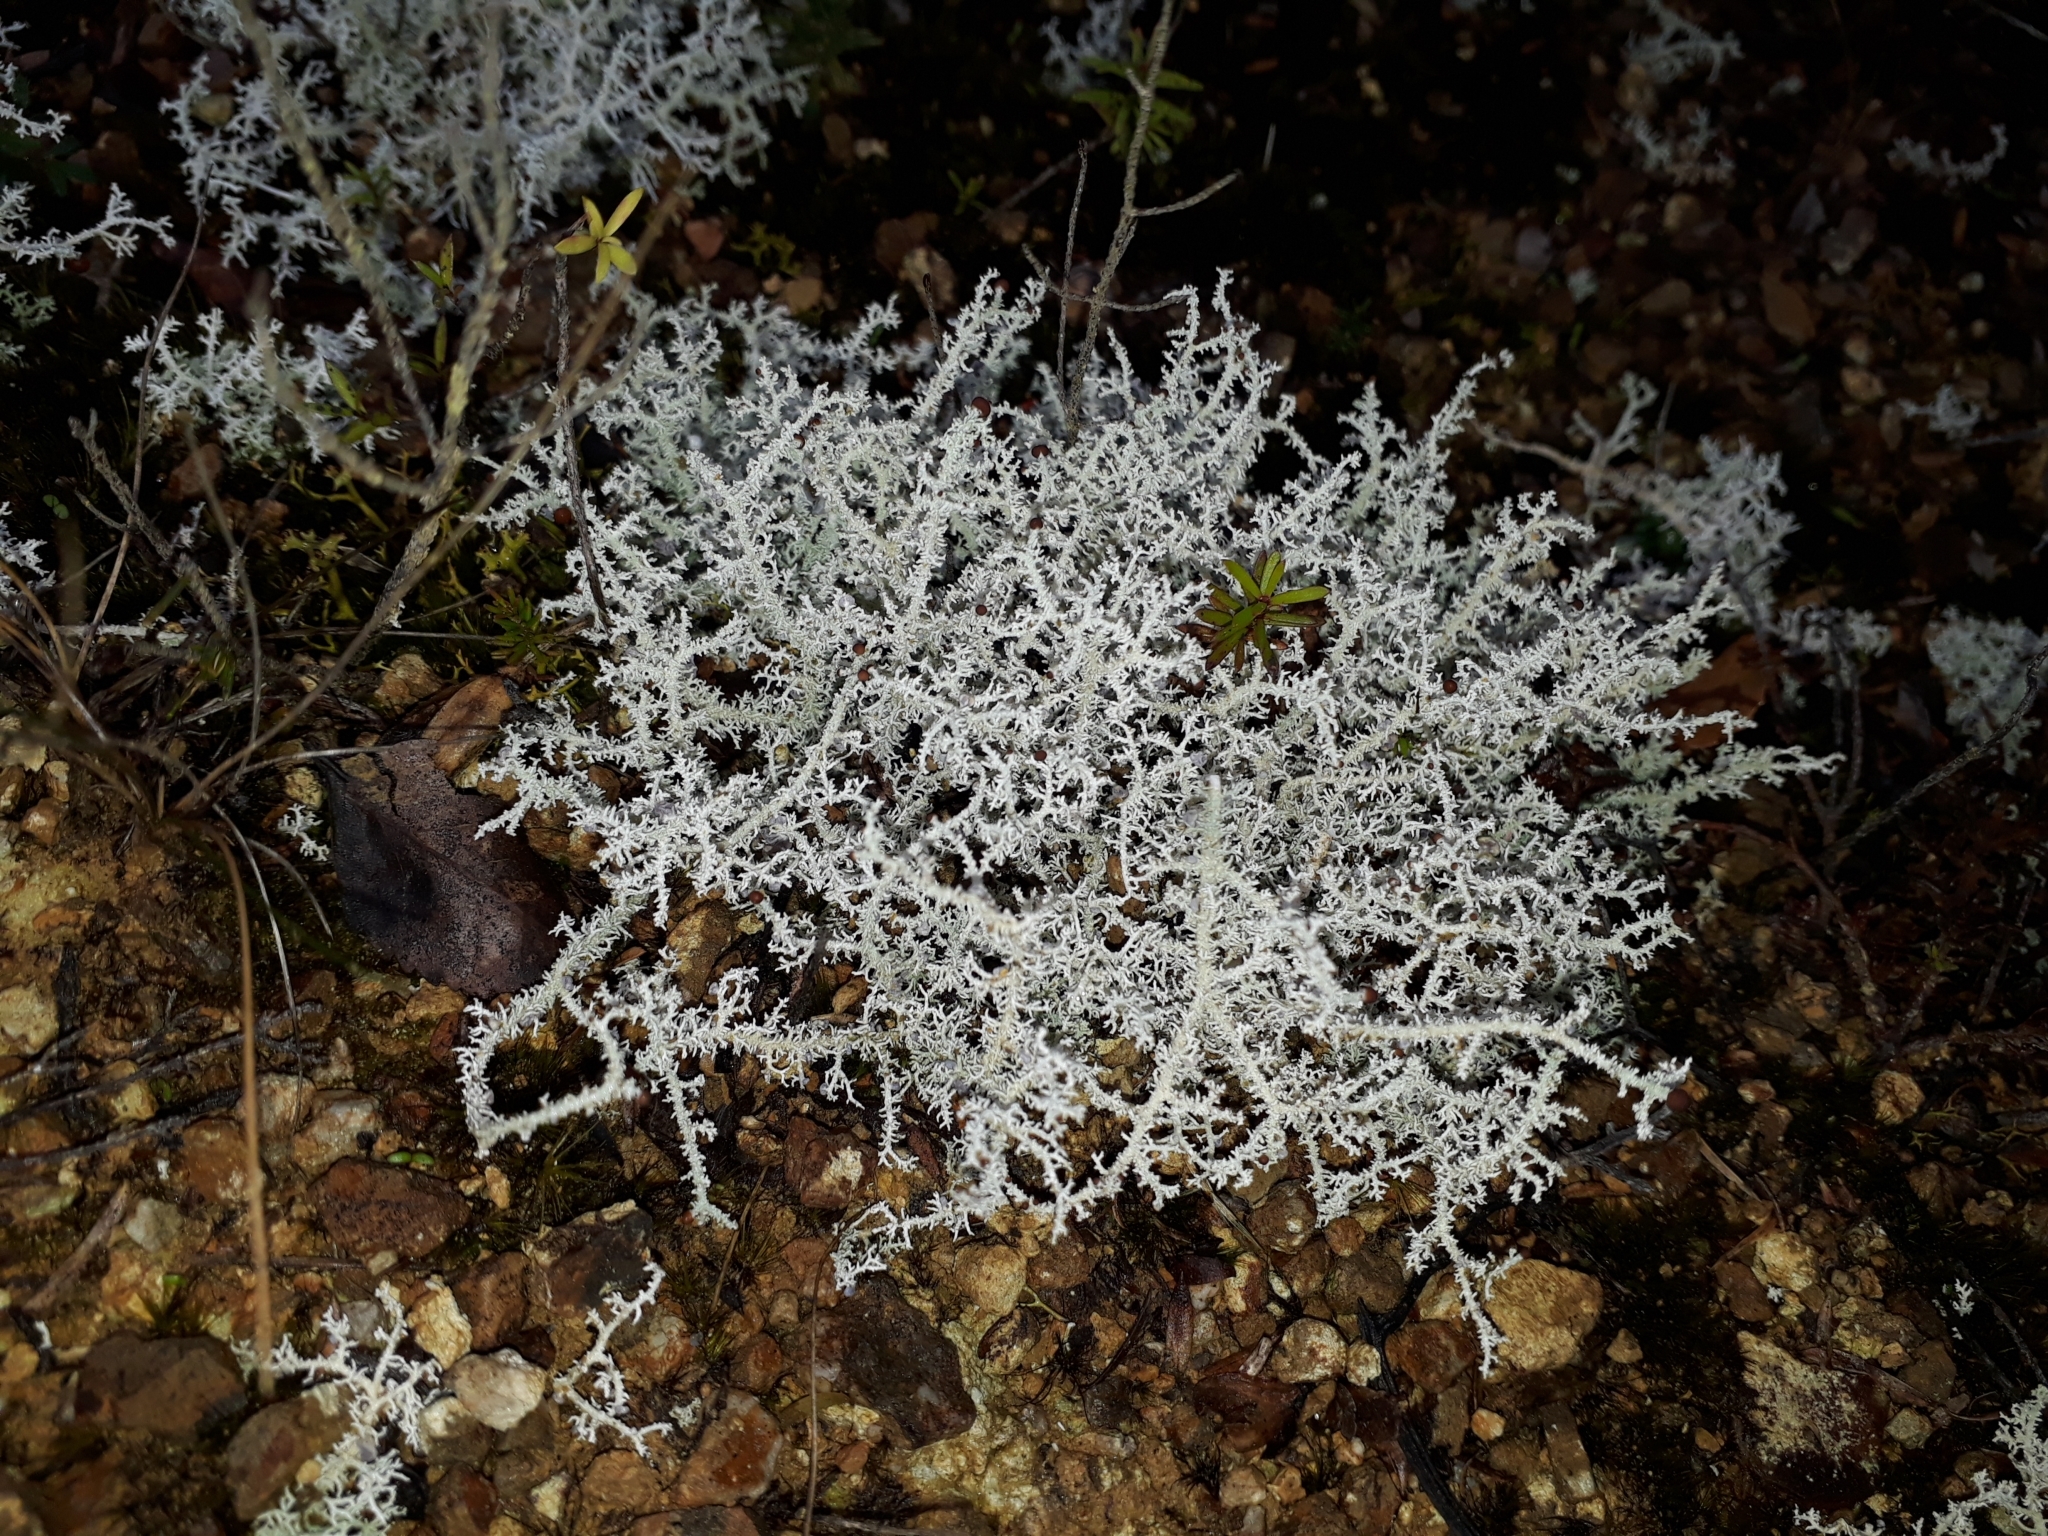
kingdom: Fungi
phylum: Ascomycota
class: Lecanoromycetes
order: Lecanorales
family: Stereocaulaceae
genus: Stereocaulon
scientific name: Stereocaulon ramulosum
